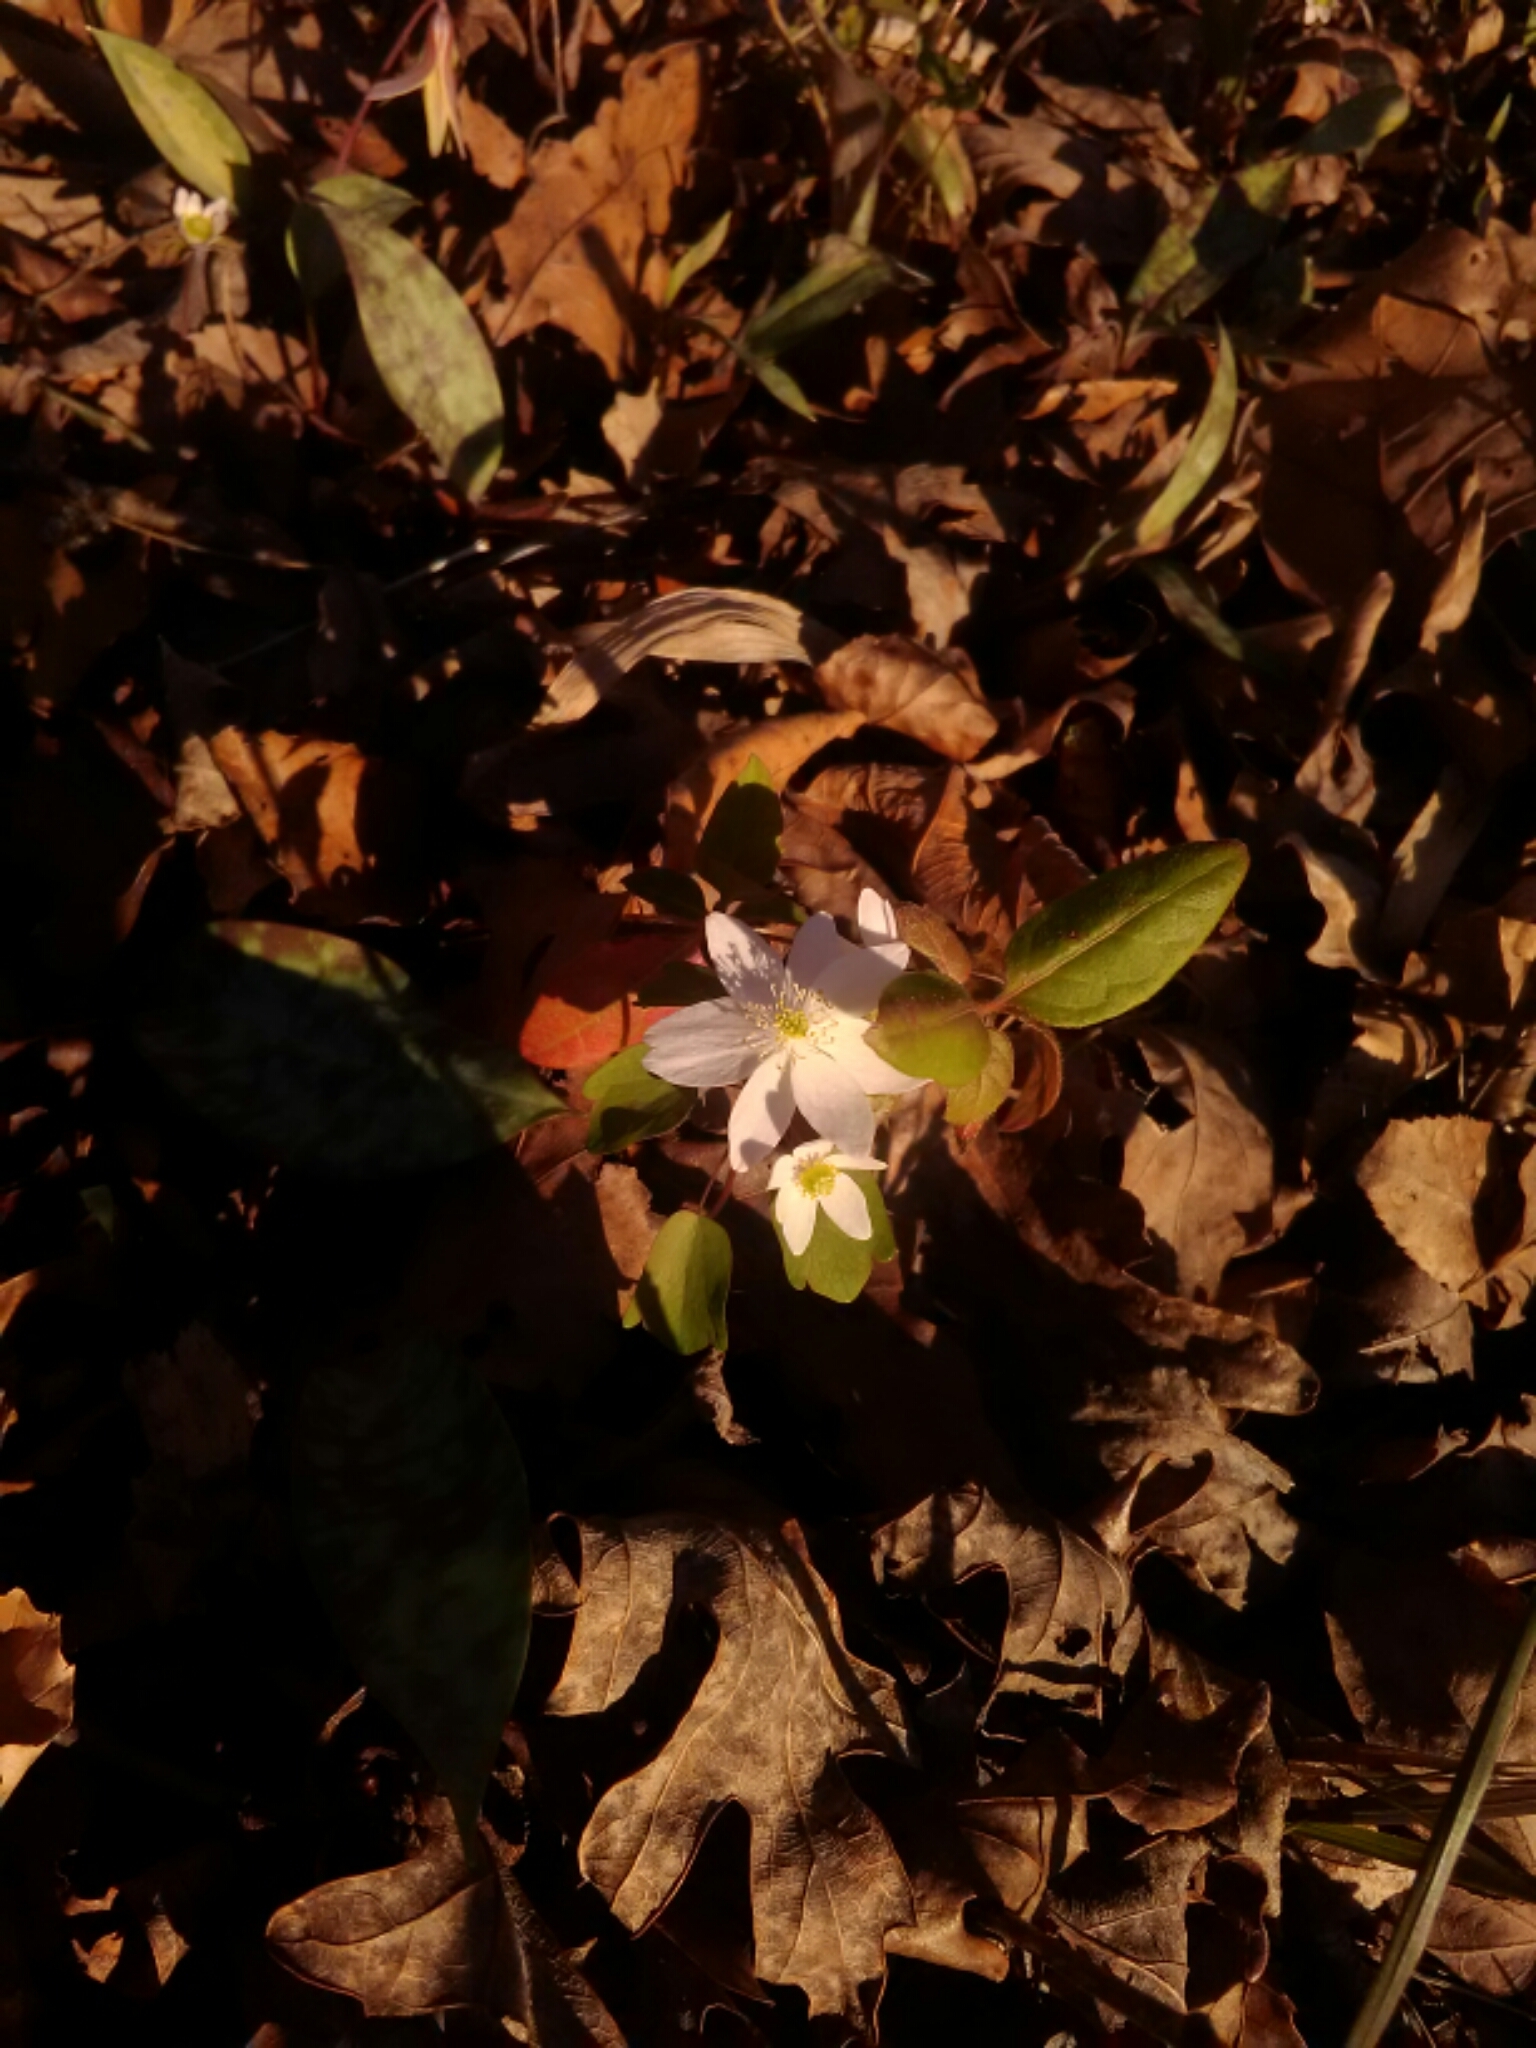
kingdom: Plantae
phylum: Tracheophyta
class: Magnoliopsida
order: Ranunculales
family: Ranunculaceae
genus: Thalictrum
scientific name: Thalictrum thalictroides
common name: Rue-anemone
